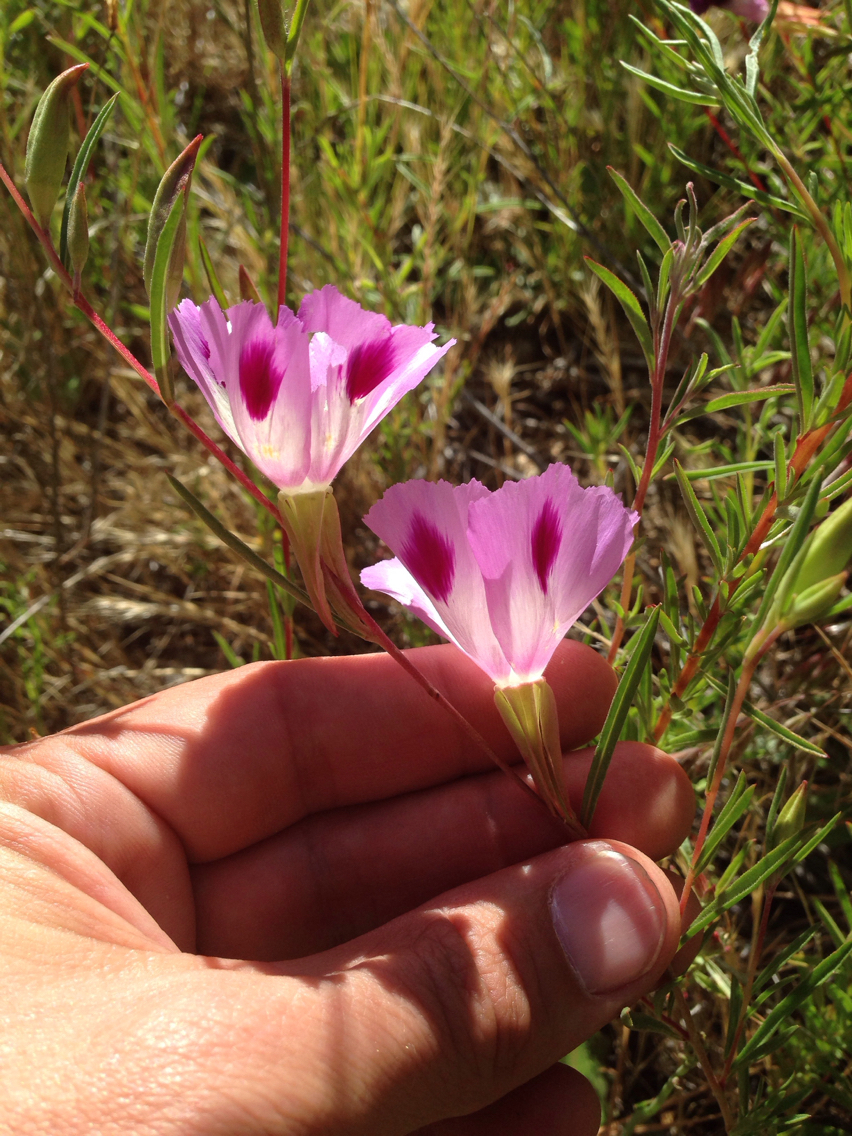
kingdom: Plantae
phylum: Tracheophyta
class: Magnoliopsida
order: Myrtales
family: Onagraceae
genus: Clarkia
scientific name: Clarkia williamsonii
